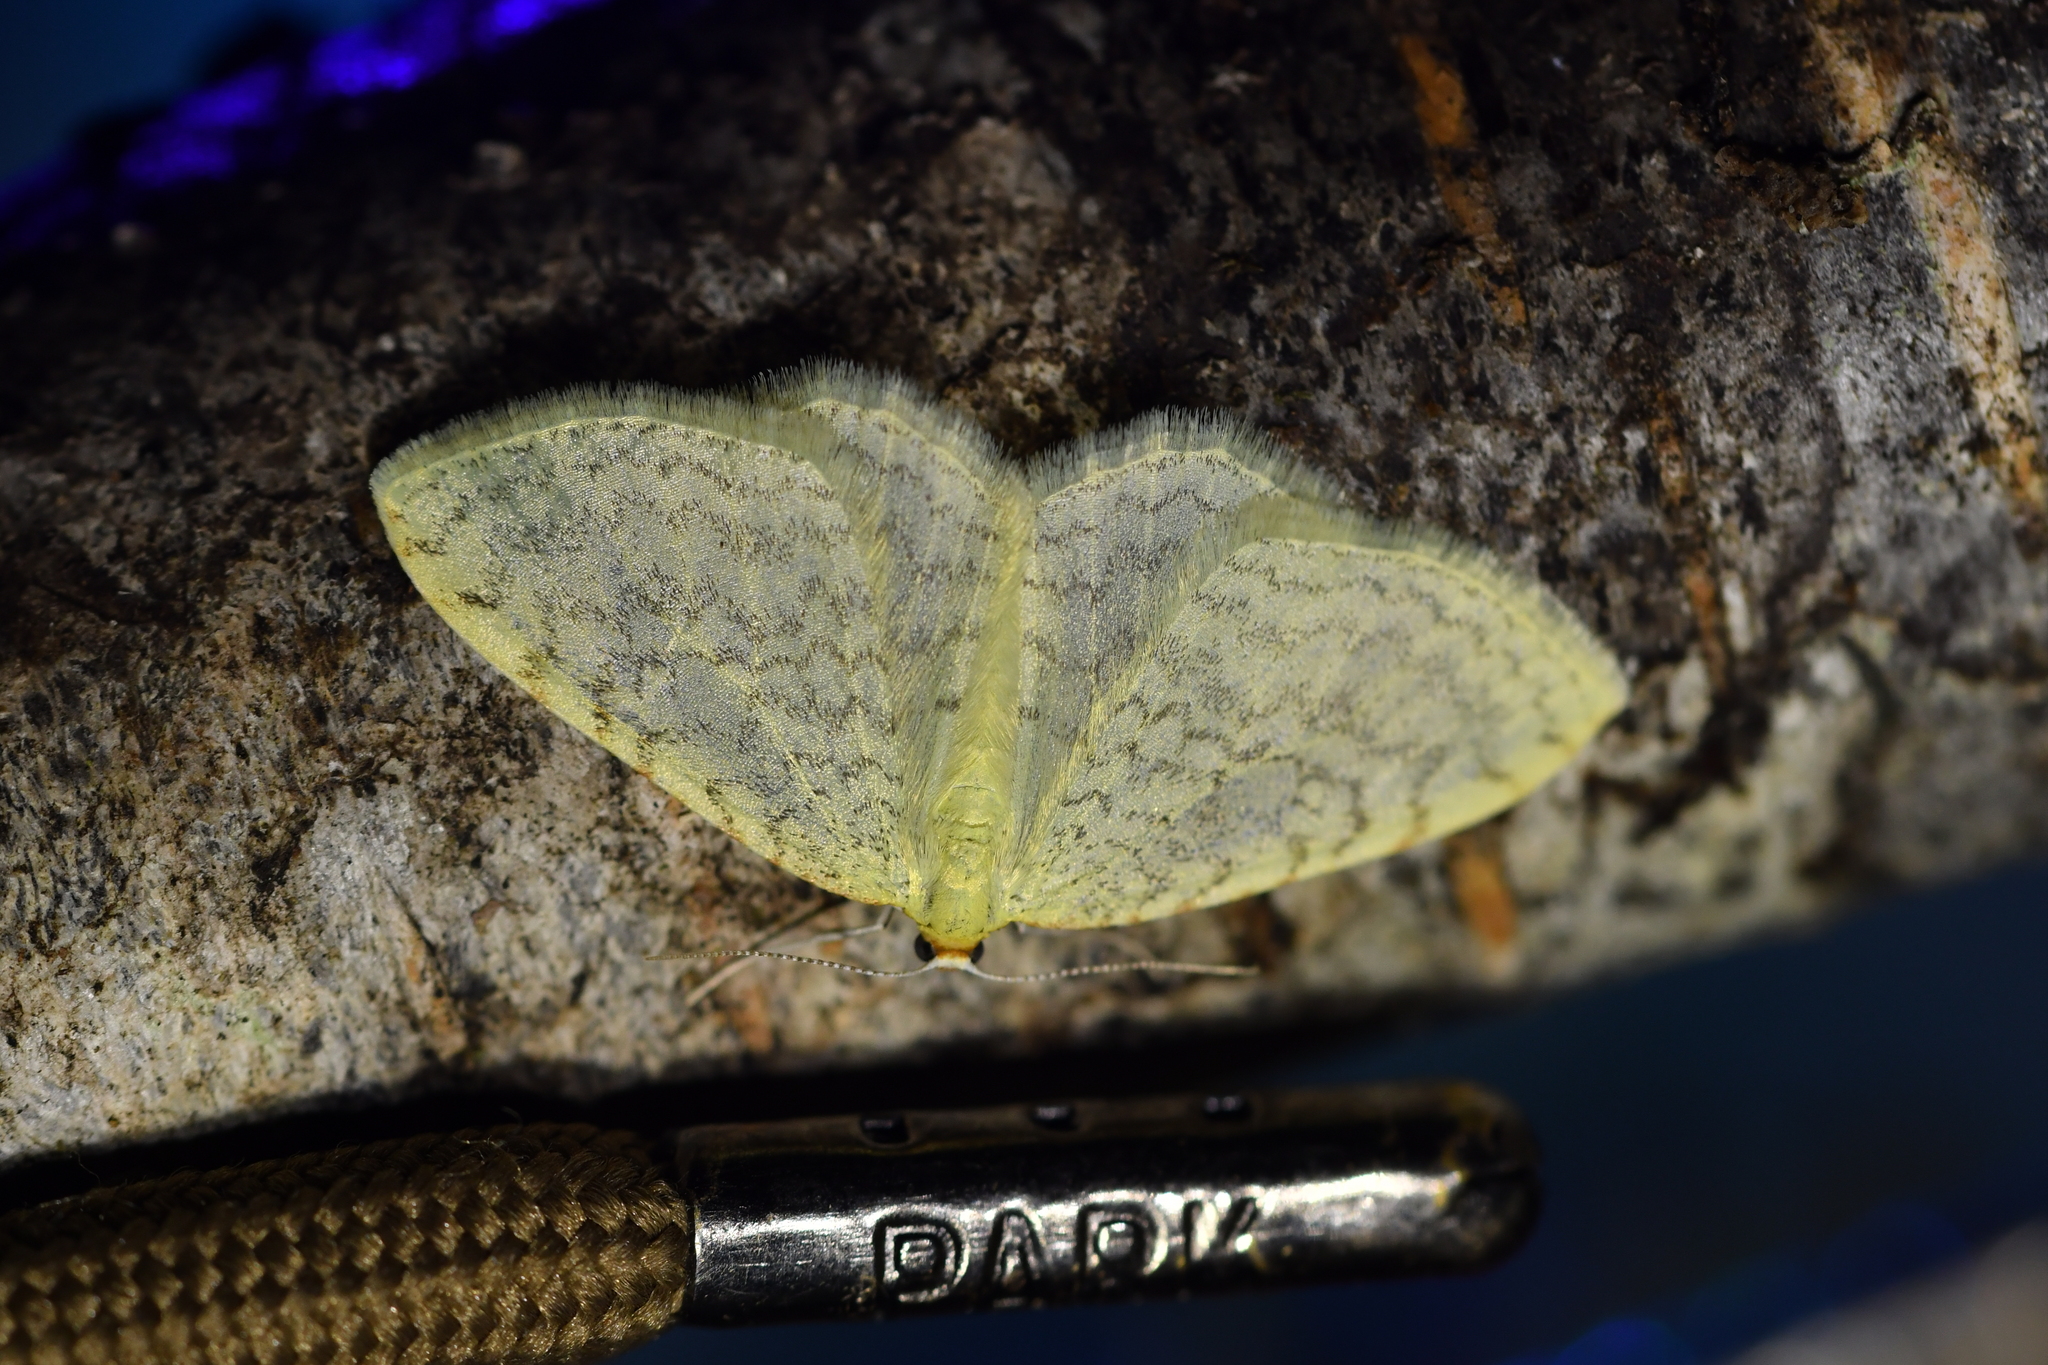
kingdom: Animalia
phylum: Arthropoda
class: Insecta
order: Lepidoptera
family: Geometridae
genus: Epiphryne
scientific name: Epiphryne undosata
